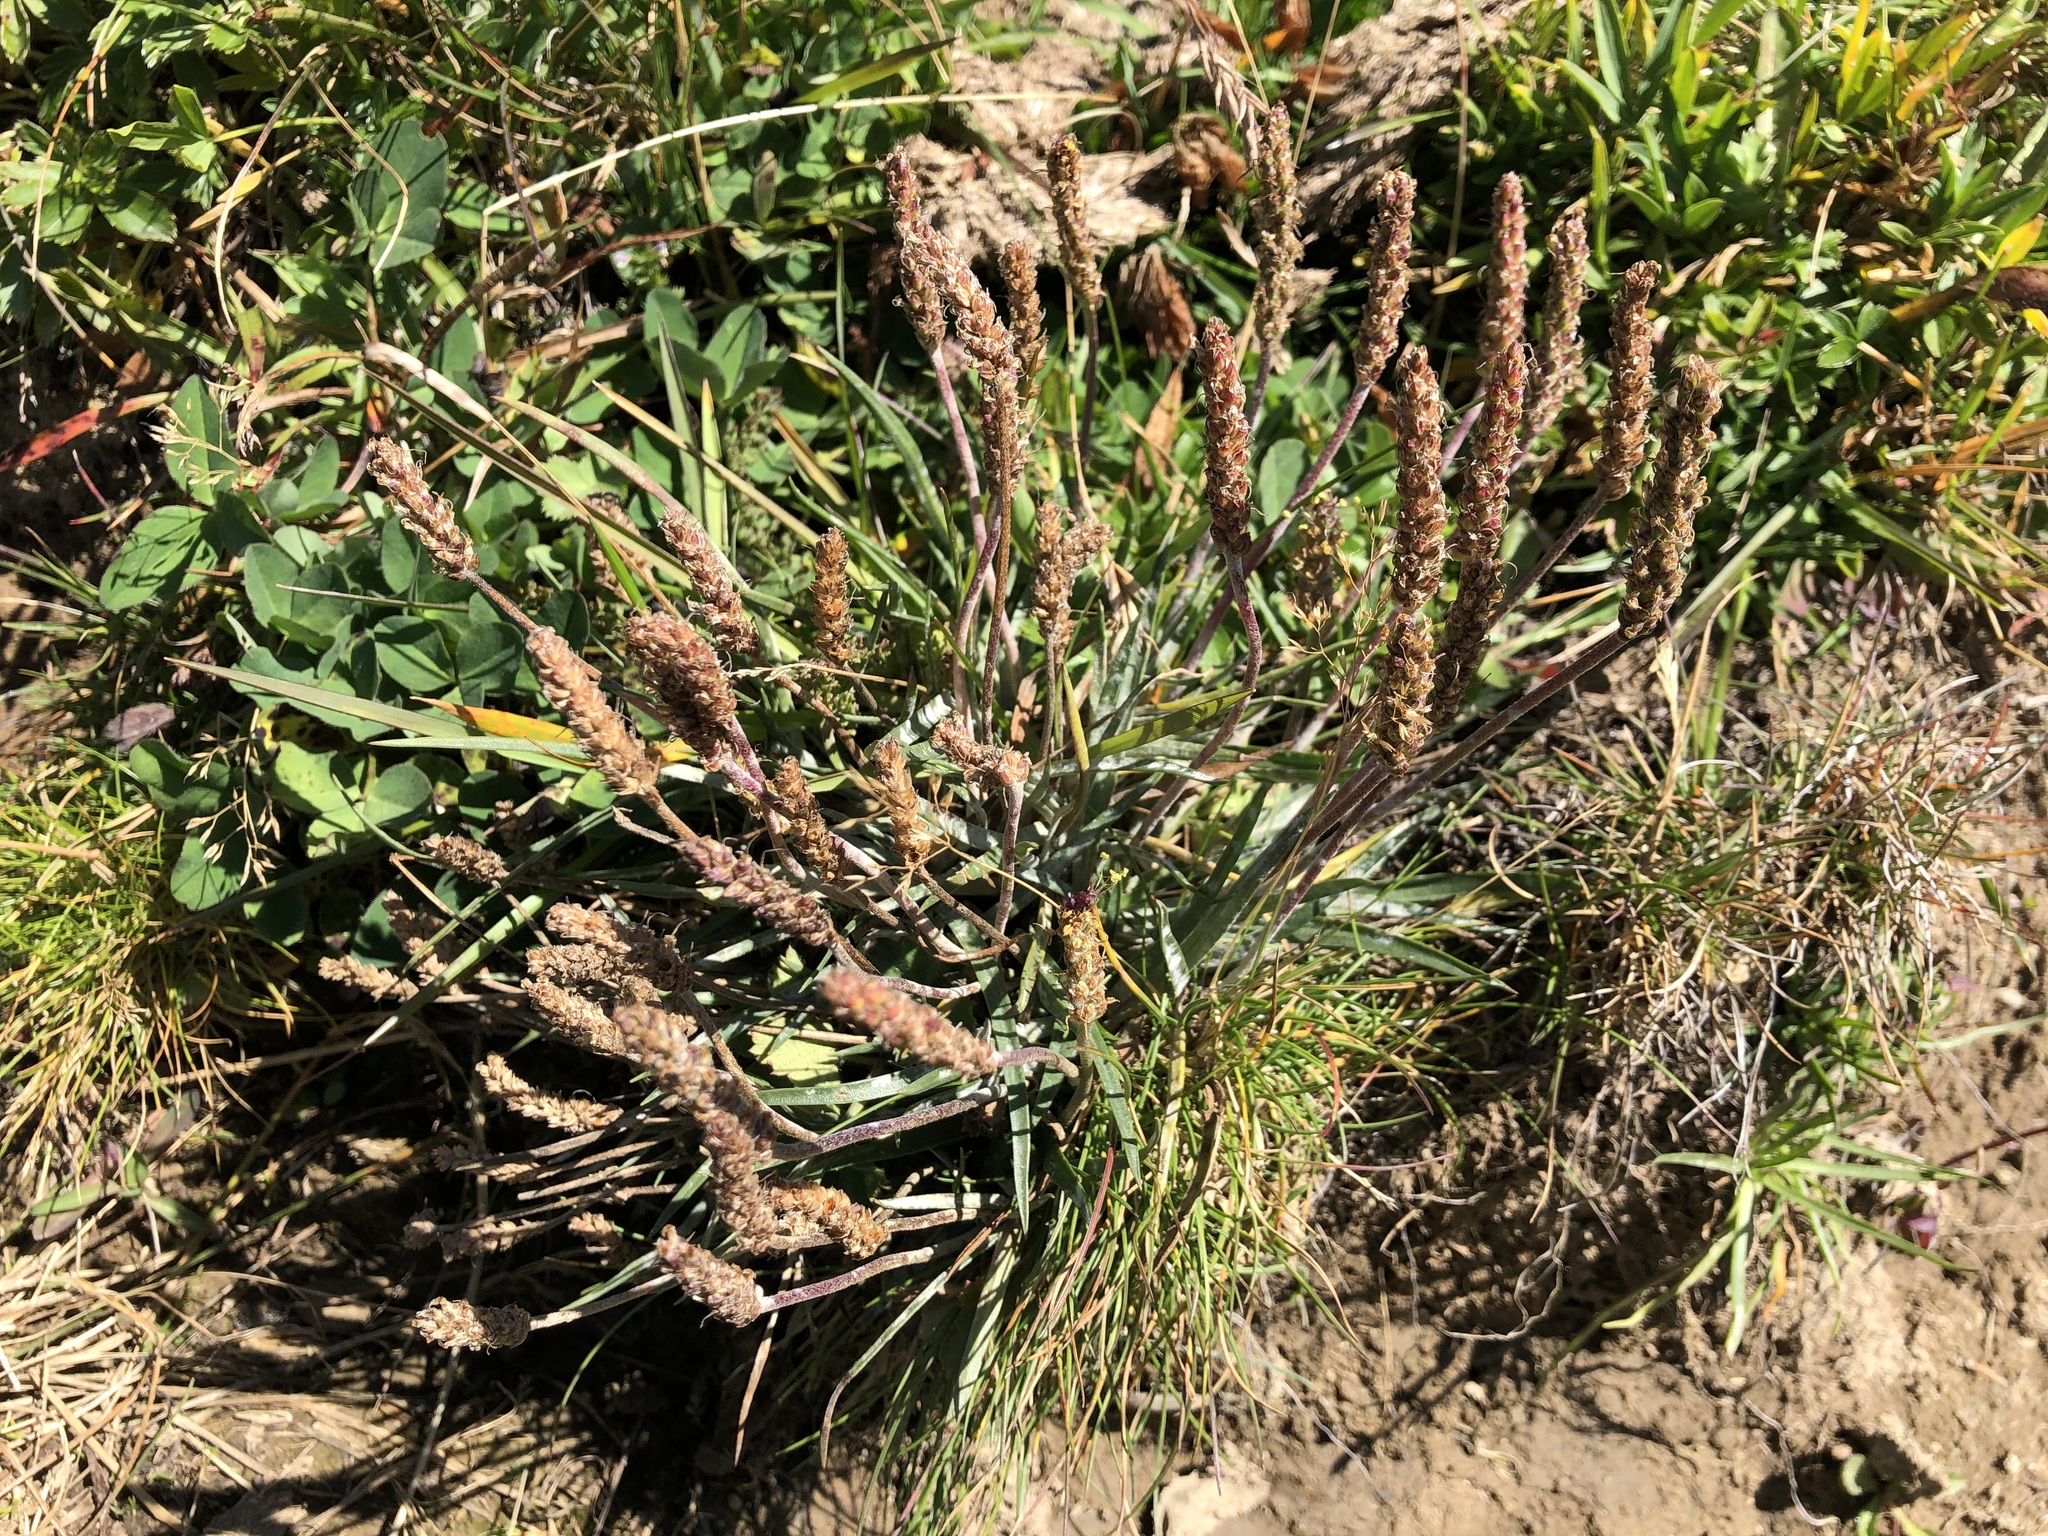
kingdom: Plantae
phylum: Tracheophyta
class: Magnoliopsida
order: Lamiales
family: Plantaginaceae
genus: Plantago
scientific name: Plantago alpina
